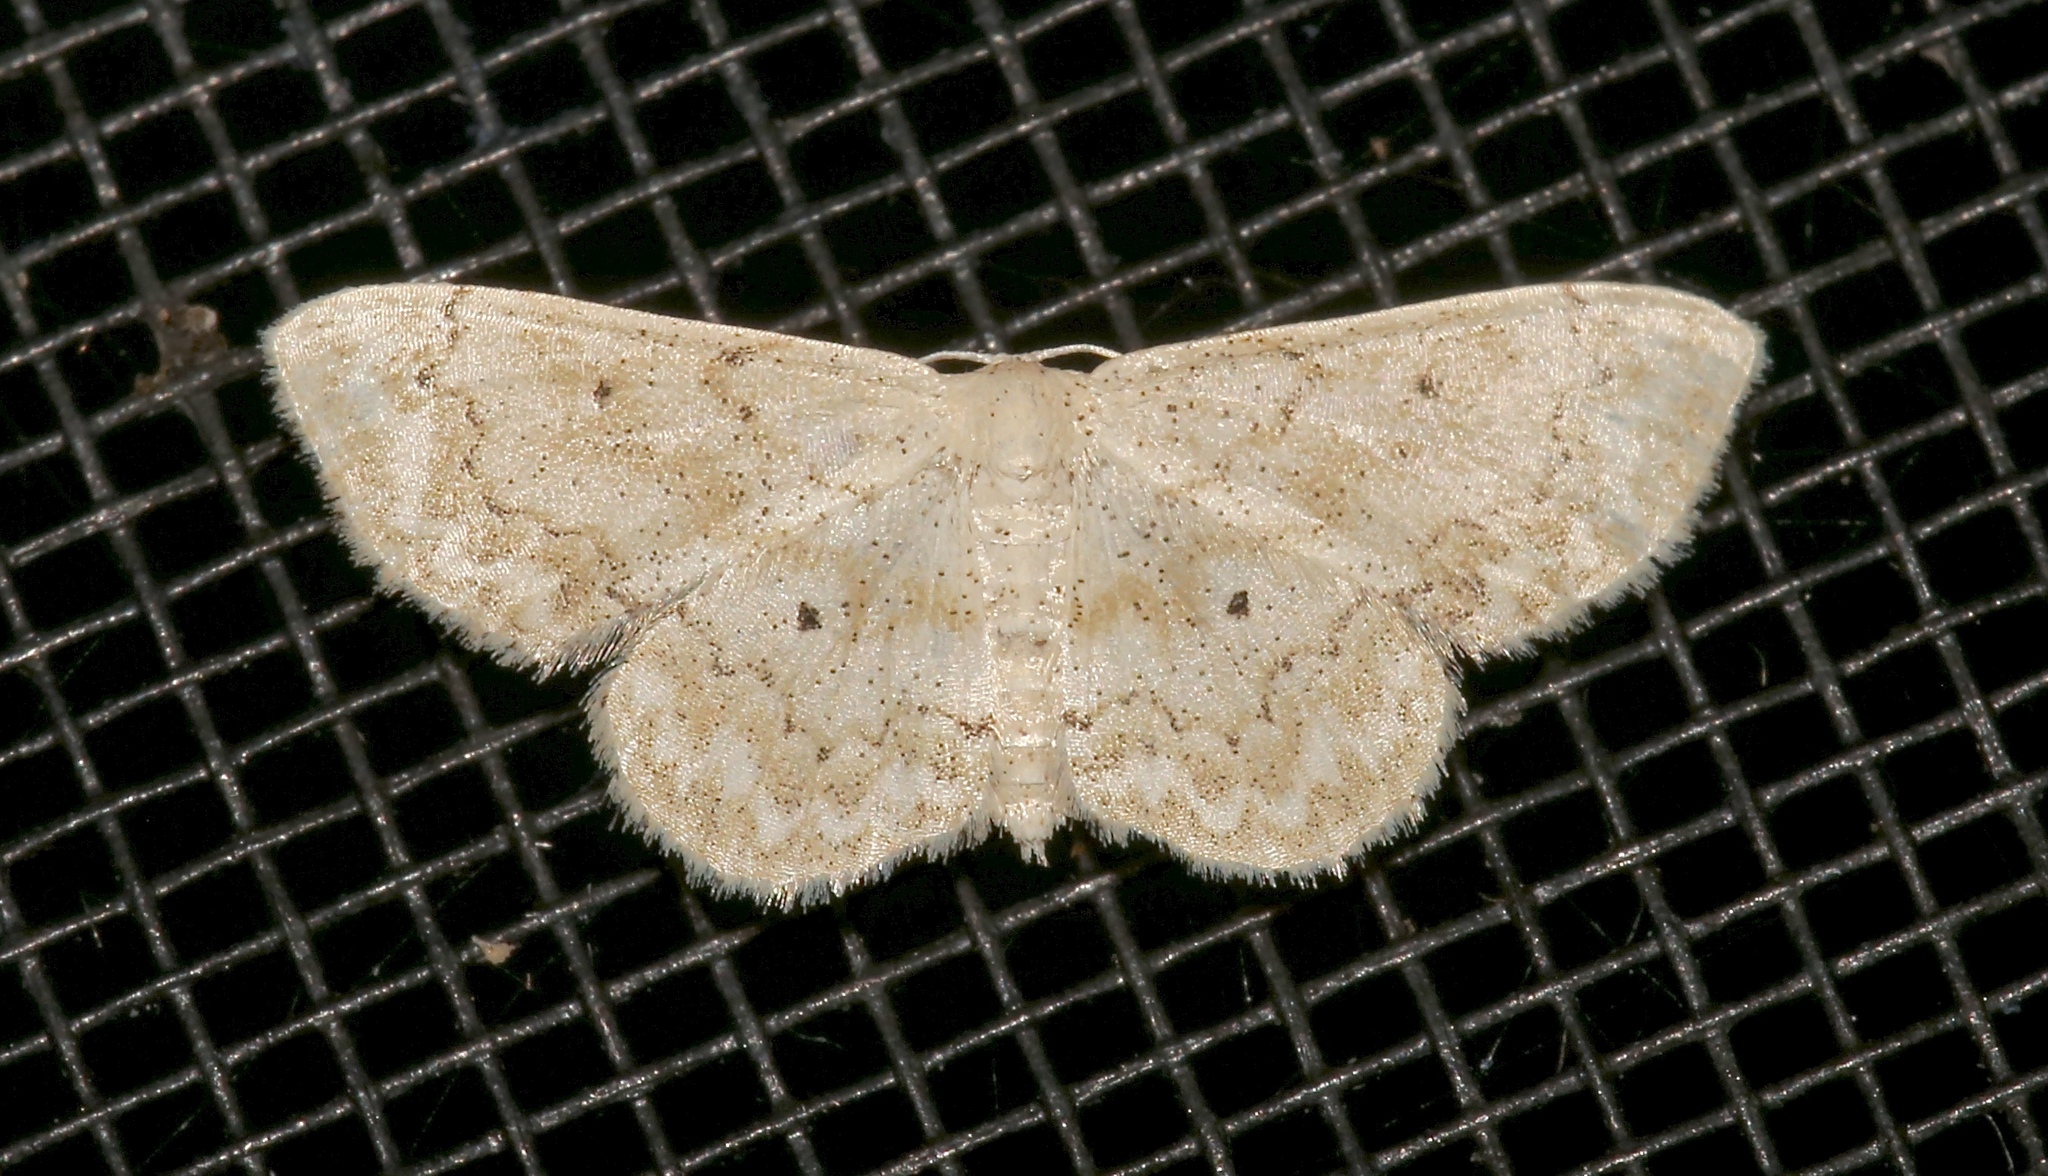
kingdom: Animalia
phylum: Arthropoda
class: Insecta
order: Lepidoptera
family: Geometridae
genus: Idaea
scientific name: Idaea obfusaria
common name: Rippled wave
